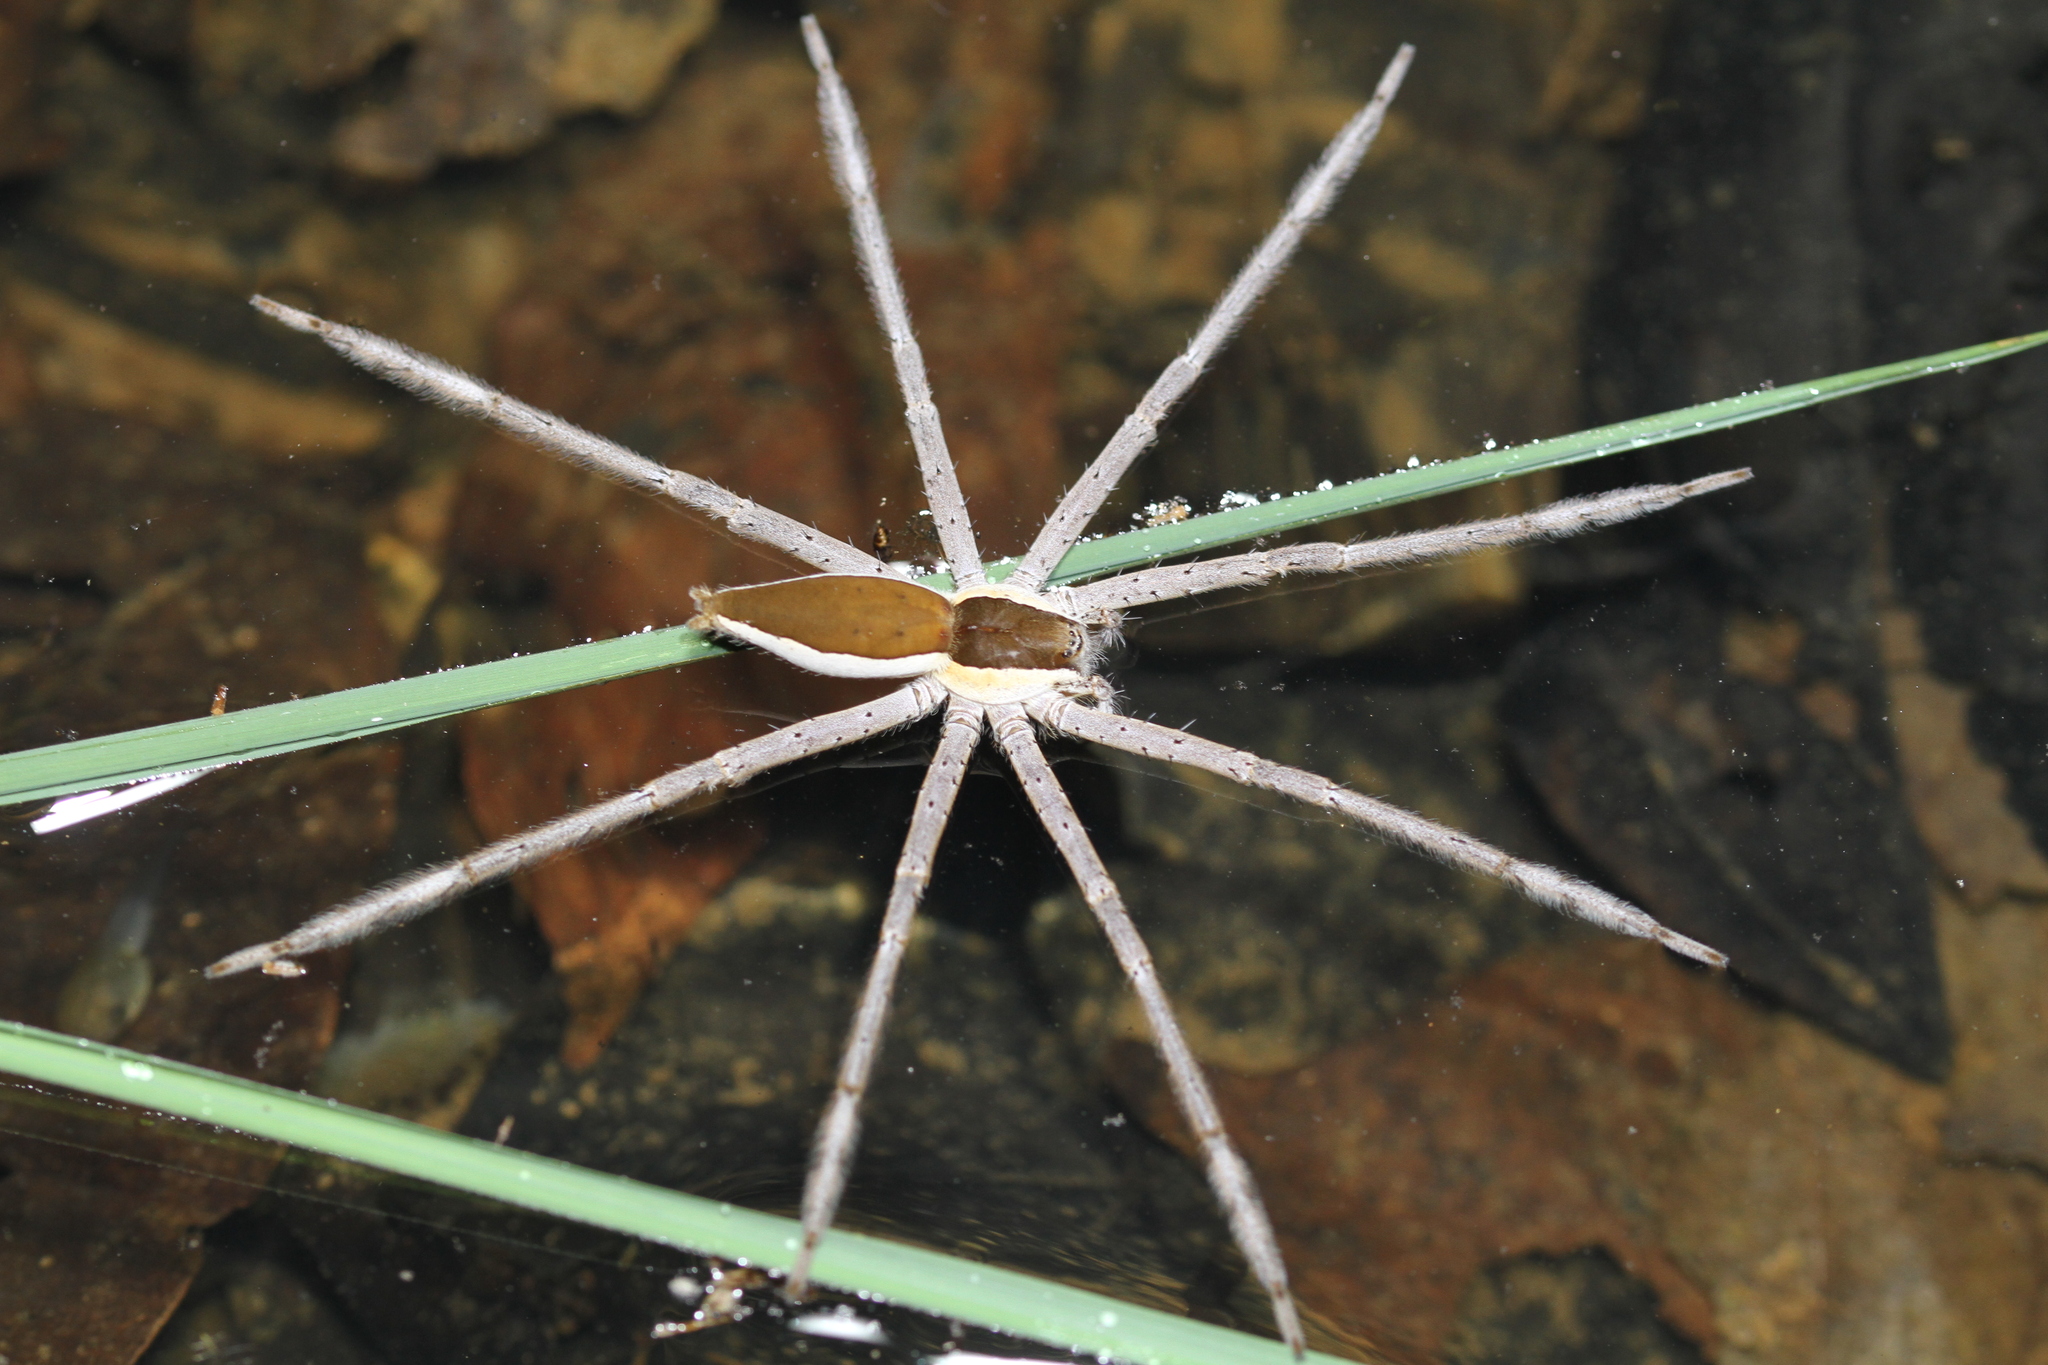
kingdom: Animalia
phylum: Arthropoda
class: Arachnida
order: Araneae
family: Pisauridae
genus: Nilus
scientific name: Nilus albocinctus
